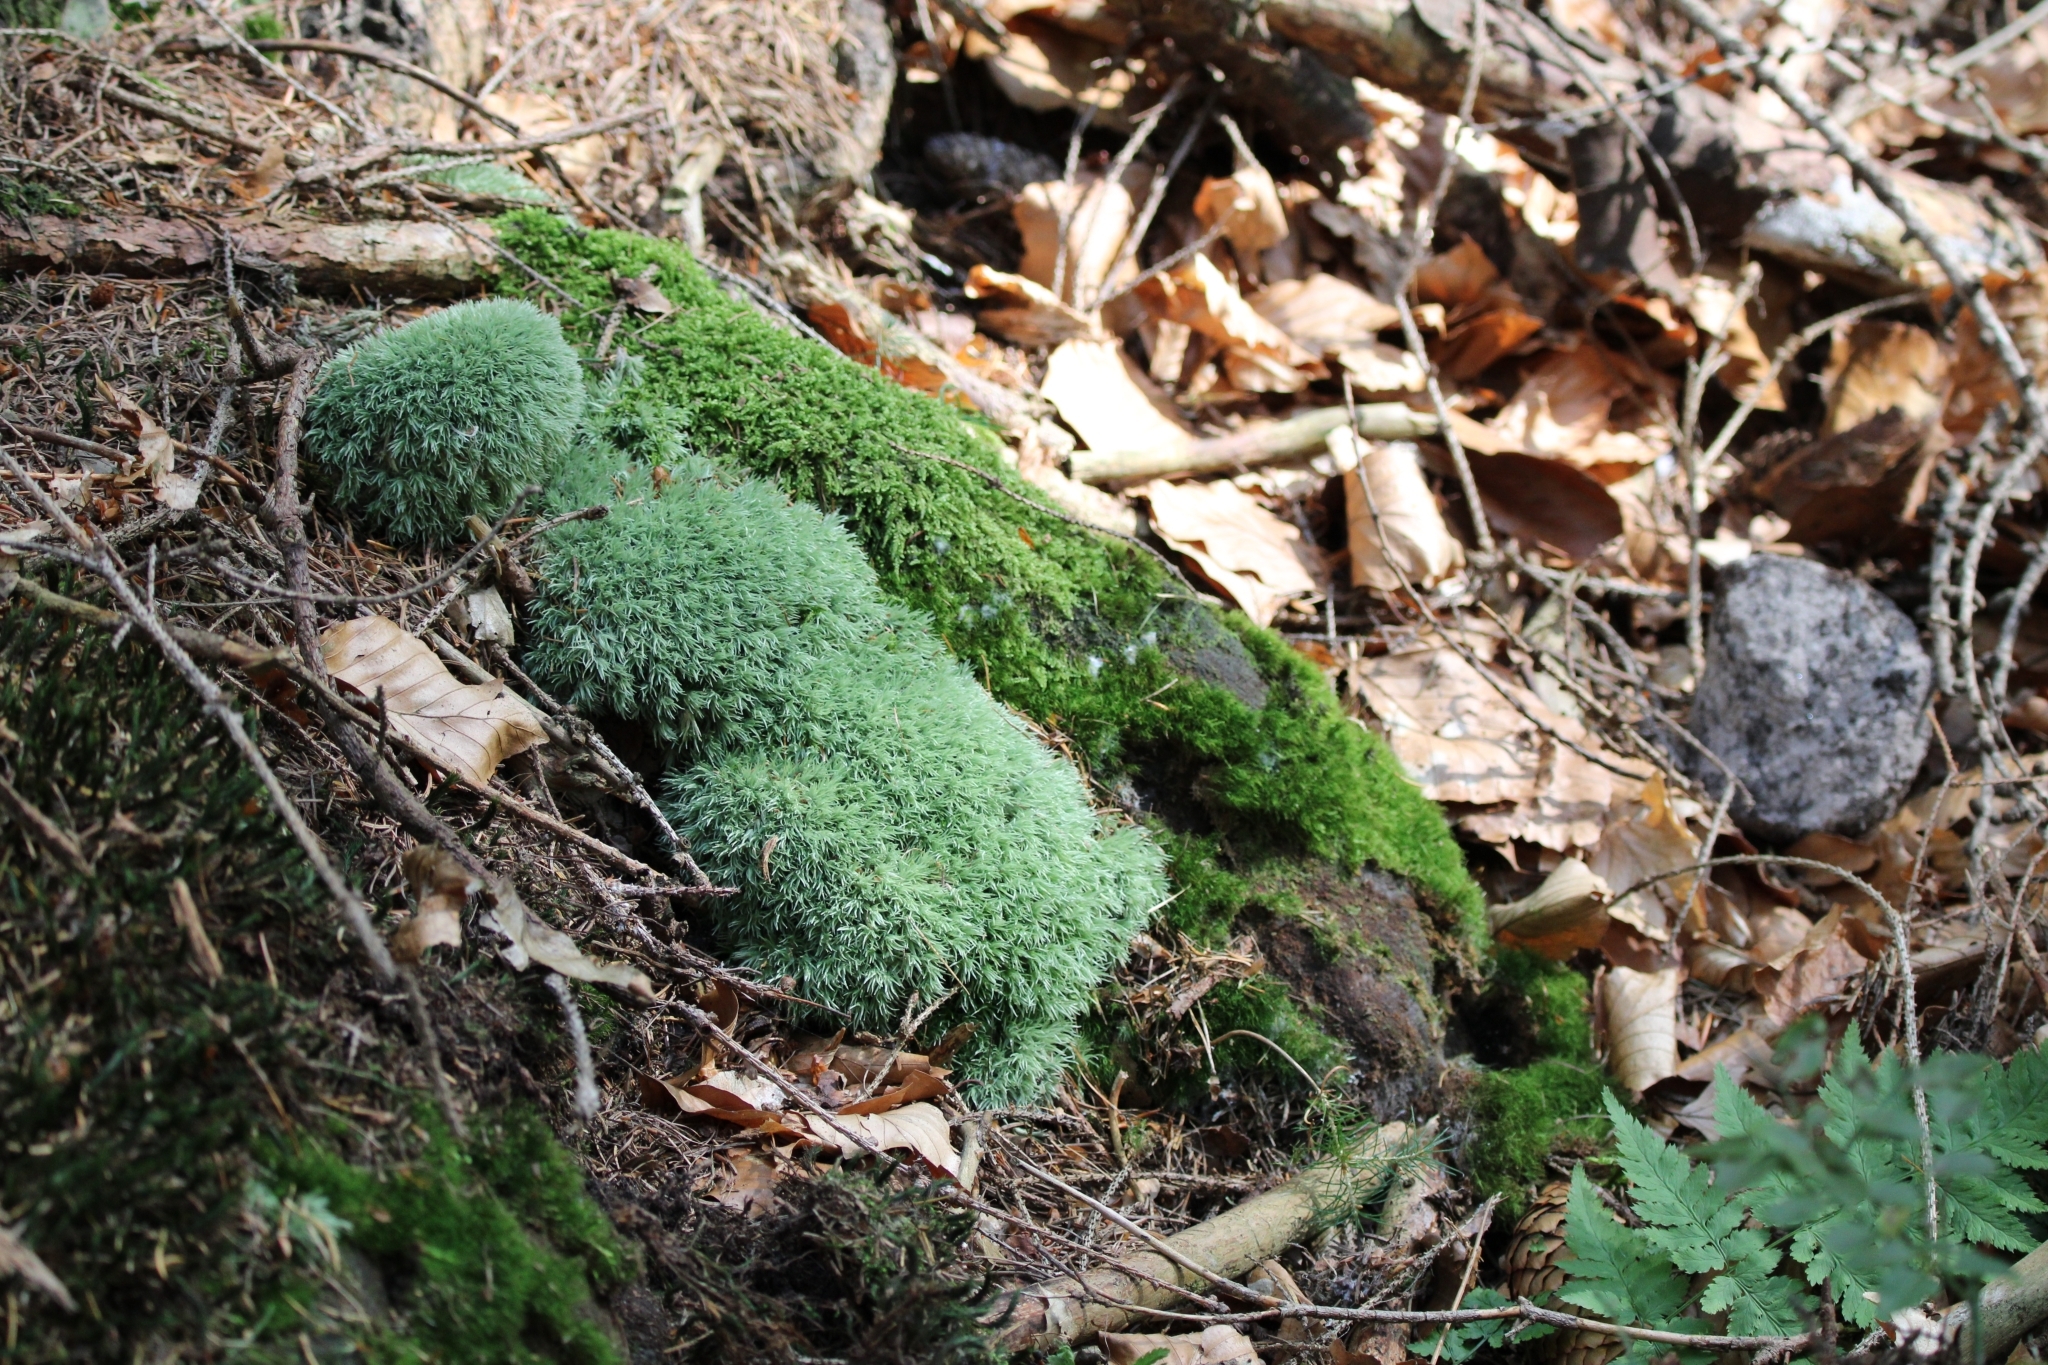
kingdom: Plantae
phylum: Bryophyta
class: Bryopsida
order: Dicranales
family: Leucobryaceae
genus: Leucobryum
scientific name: Leucobryum glaucum
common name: Large white-moss
